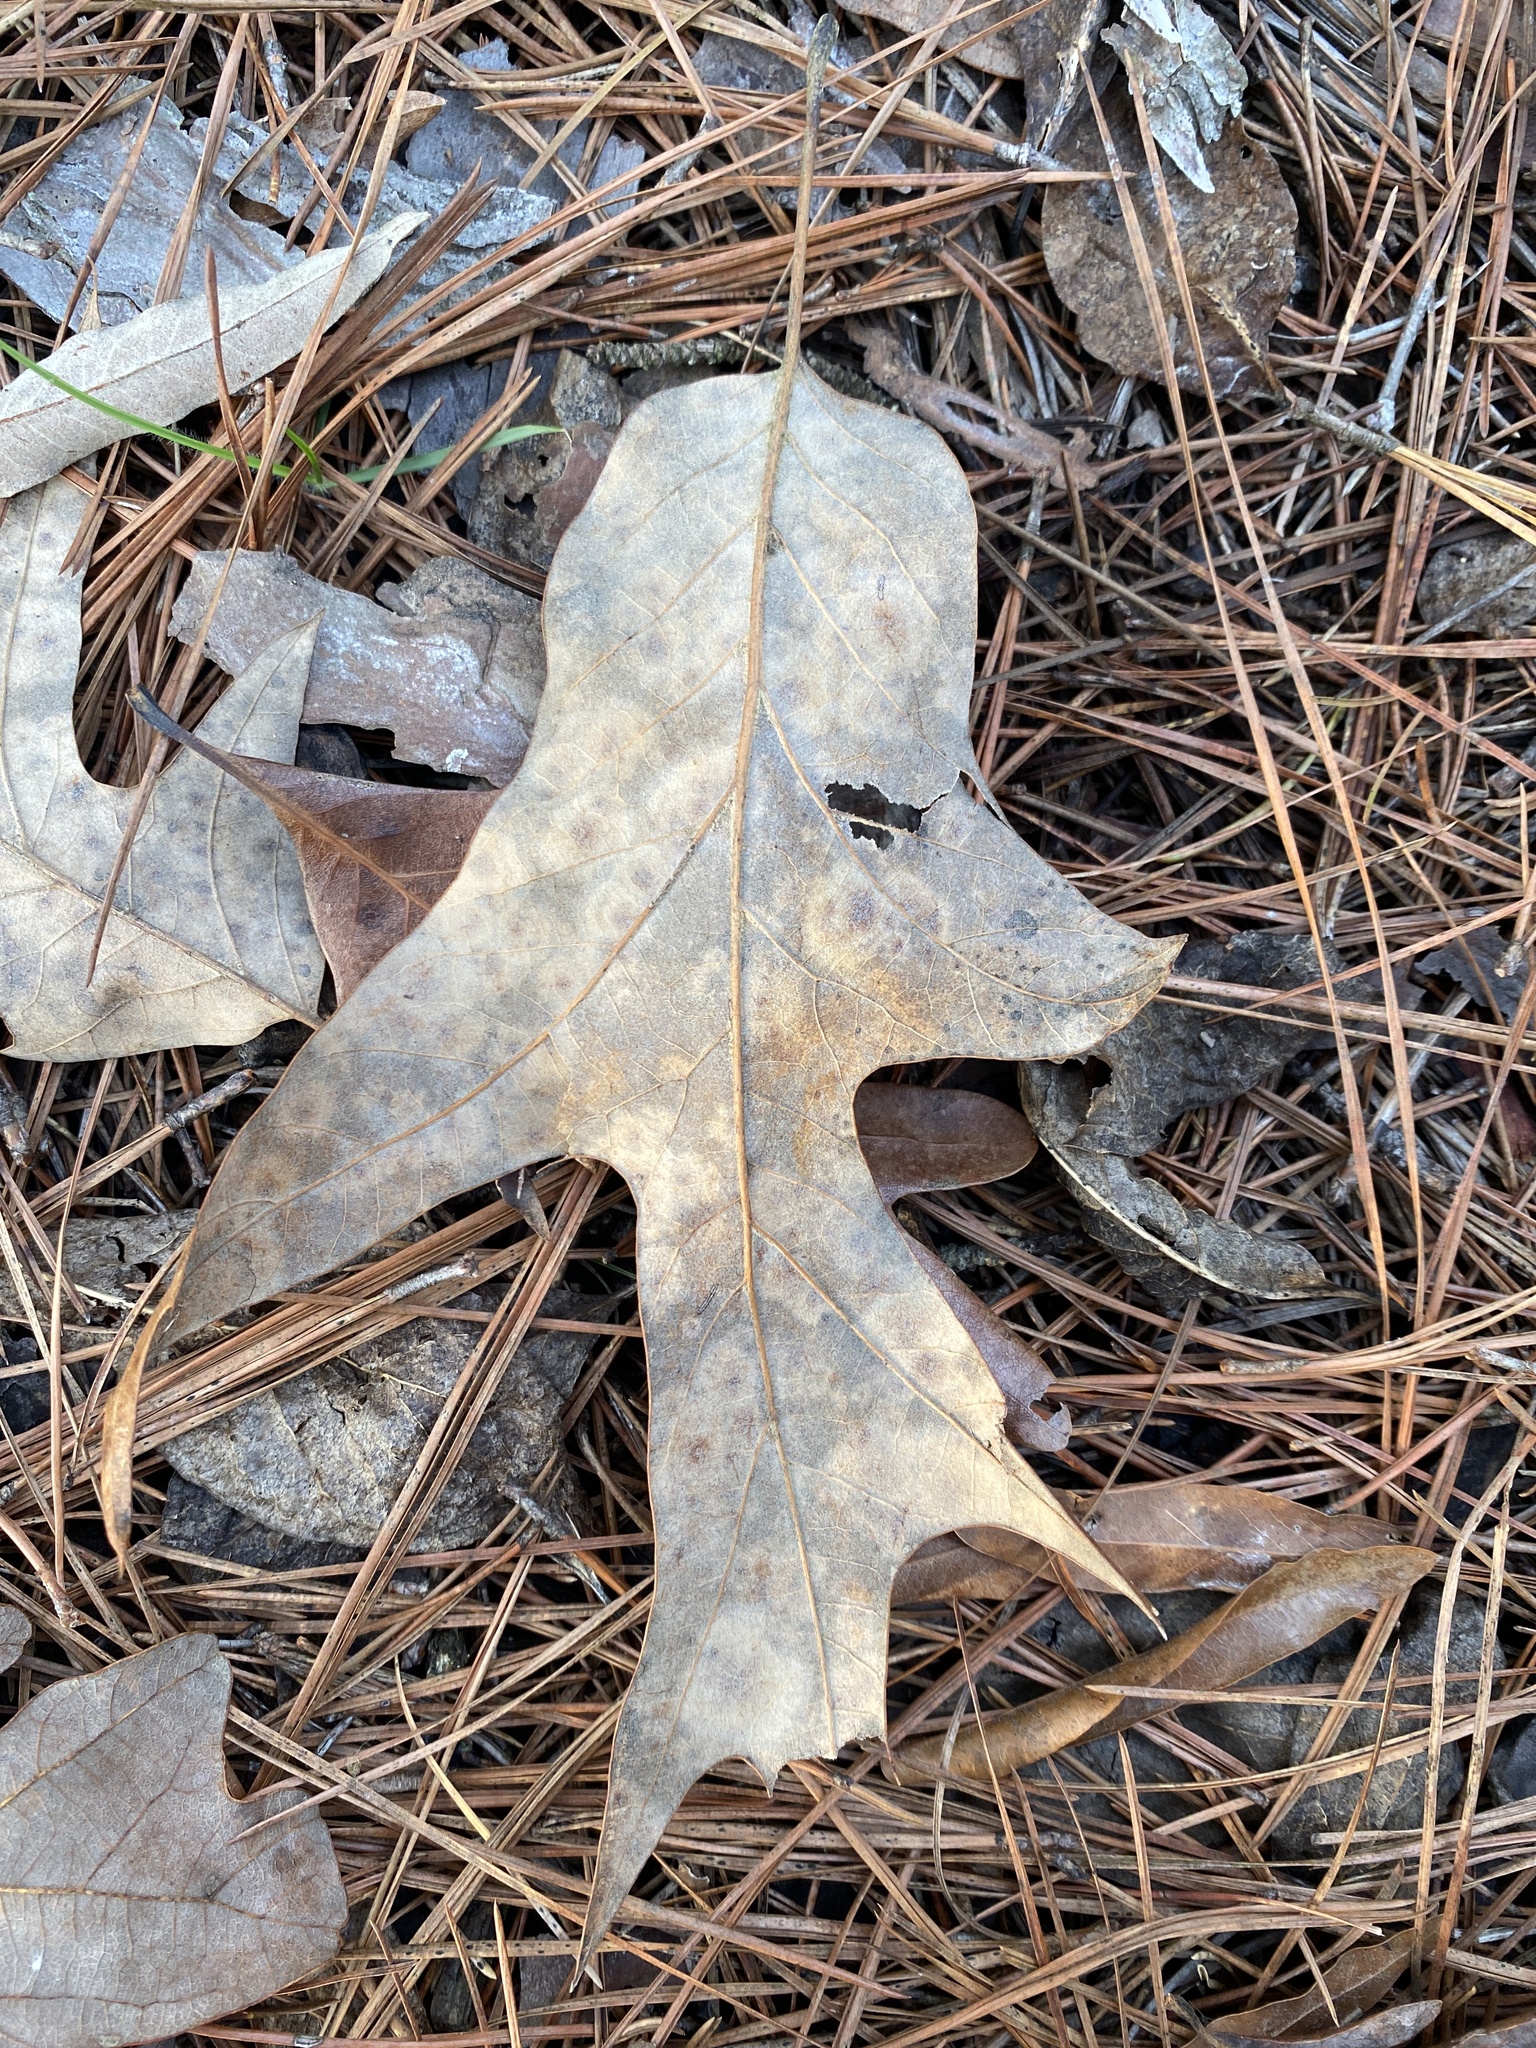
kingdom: Plantae
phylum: Tracheophyta
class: Magnoliopsida
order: Fagales
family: Fagaceae
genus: Quercus
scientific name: Quercus falcata
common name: Southern red oak
